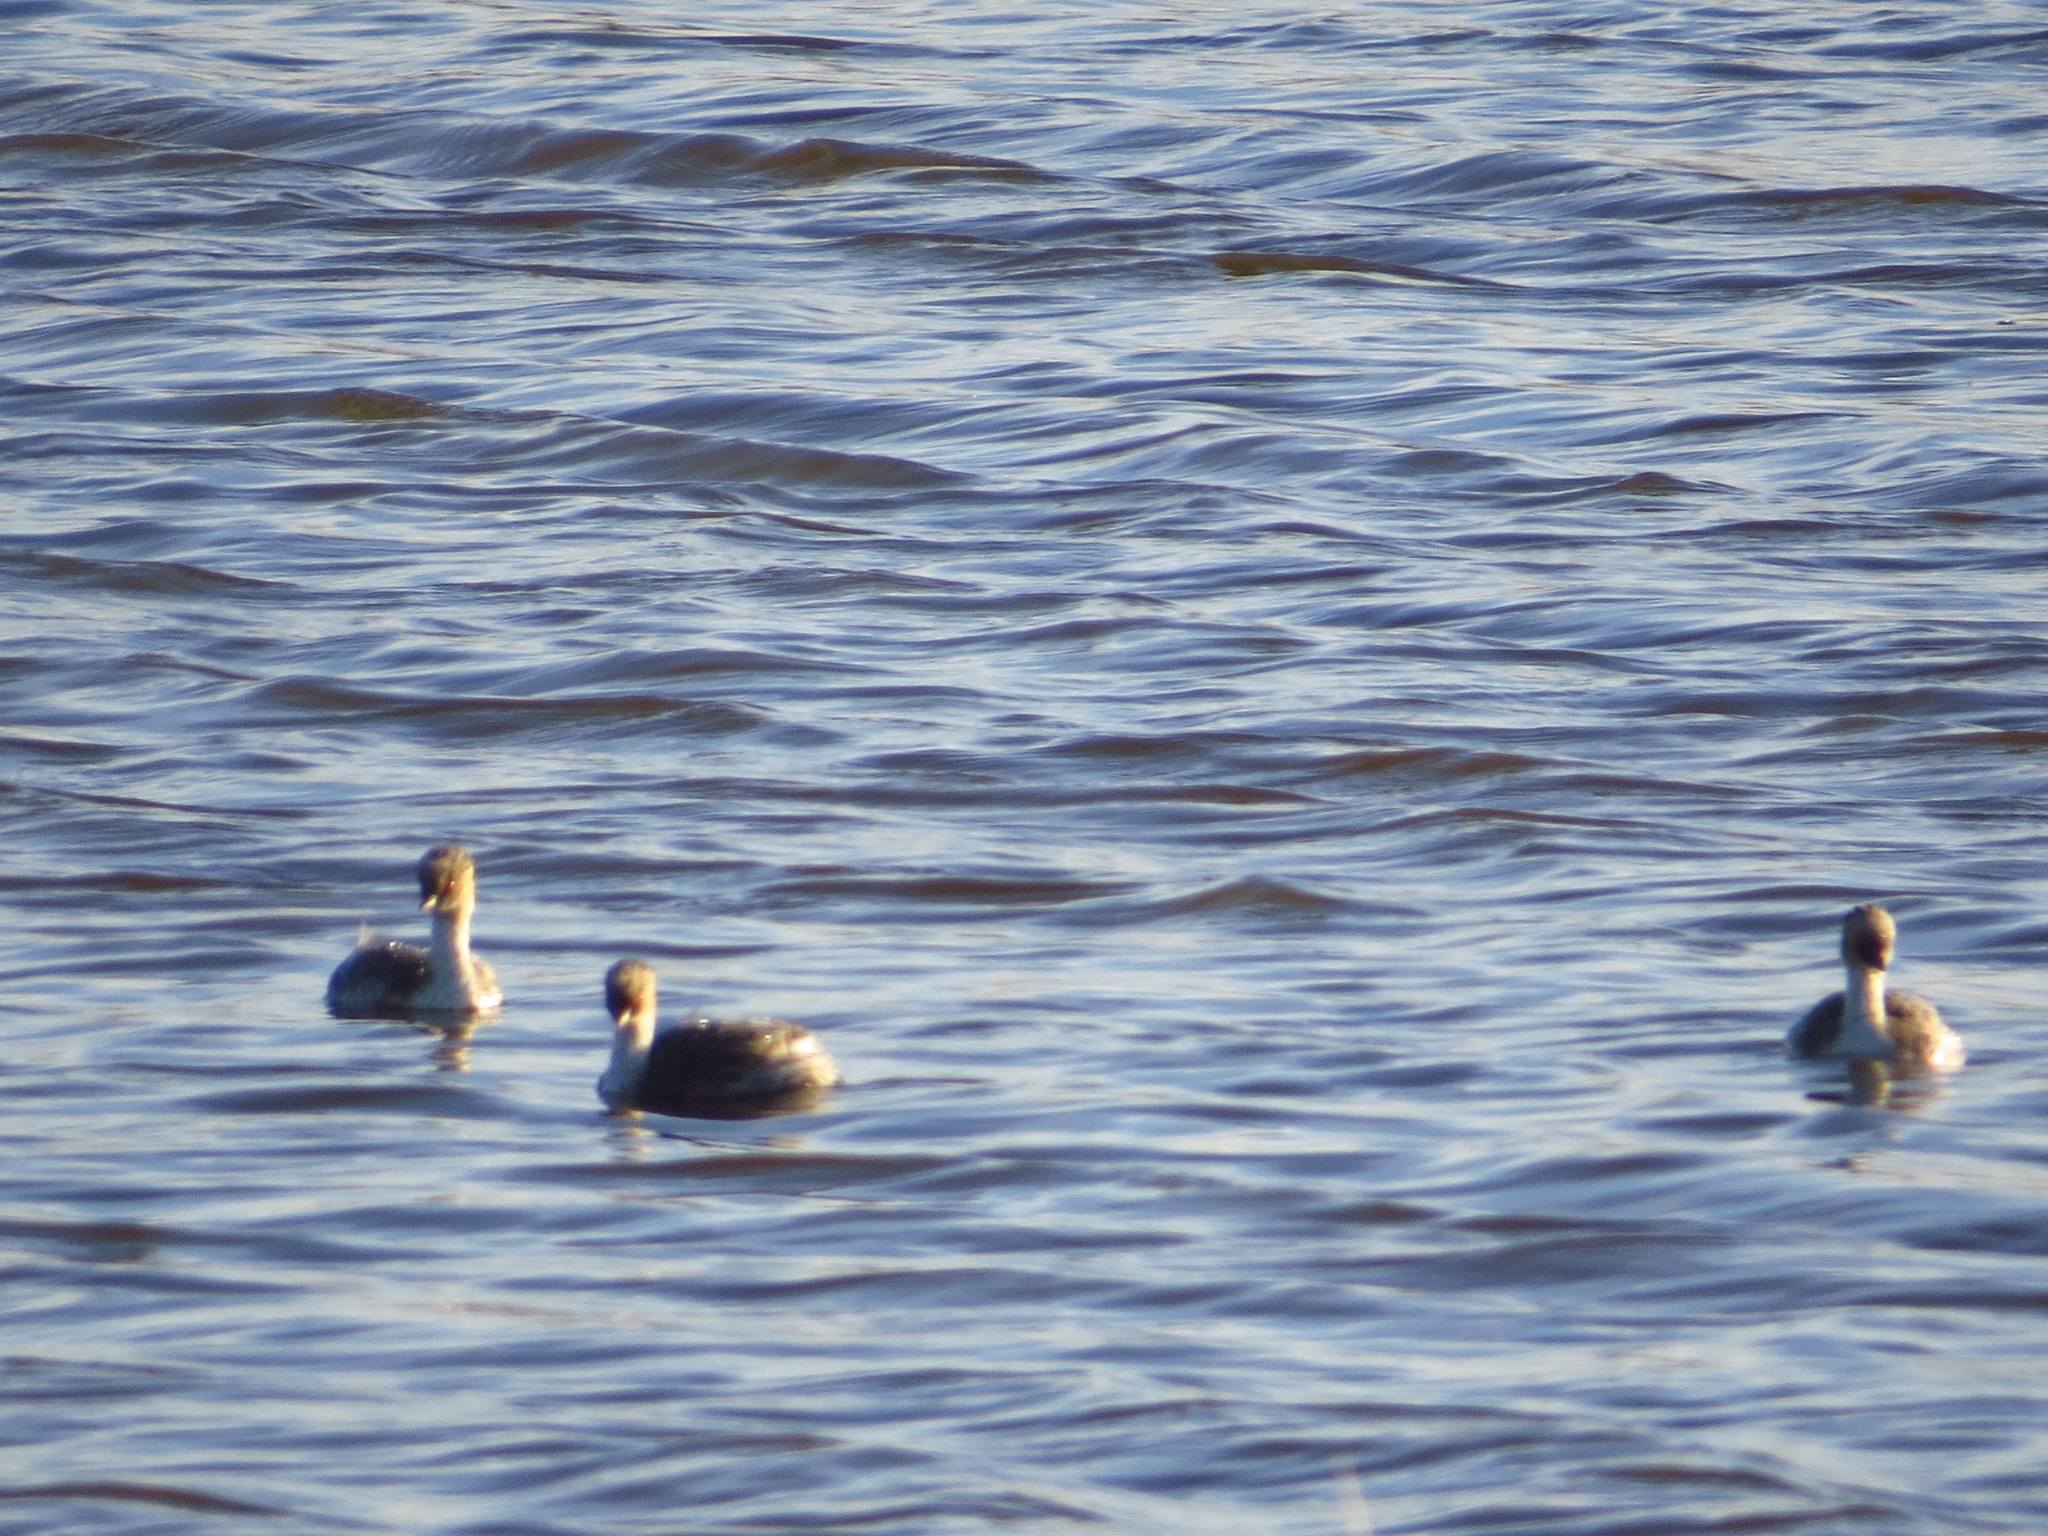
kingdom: Animalia
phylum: Chordata
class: Aves
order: Podicipediformes
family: Podicipedidae
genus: Podiceps
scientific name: Podiceps occipitalis
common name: Silvery grebe
